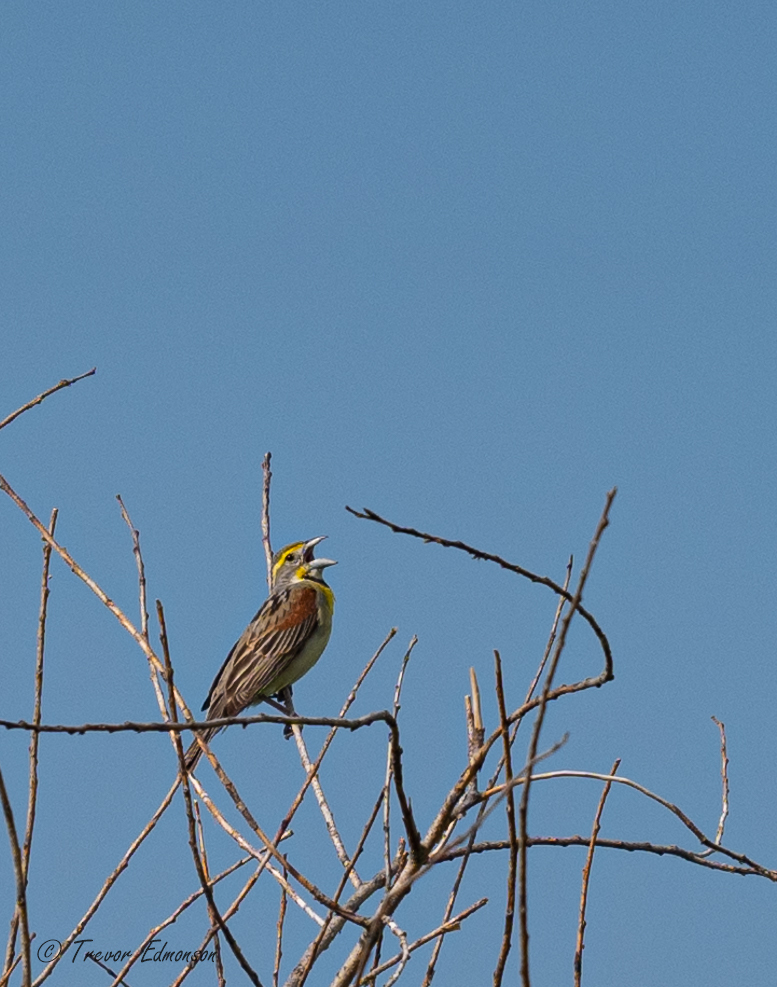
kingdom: Animalia
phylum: Chordata
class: Aves
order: Passeriformes
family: Cardinalidae
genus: Spiza
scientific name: Spiza americana
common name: Dickcissel
